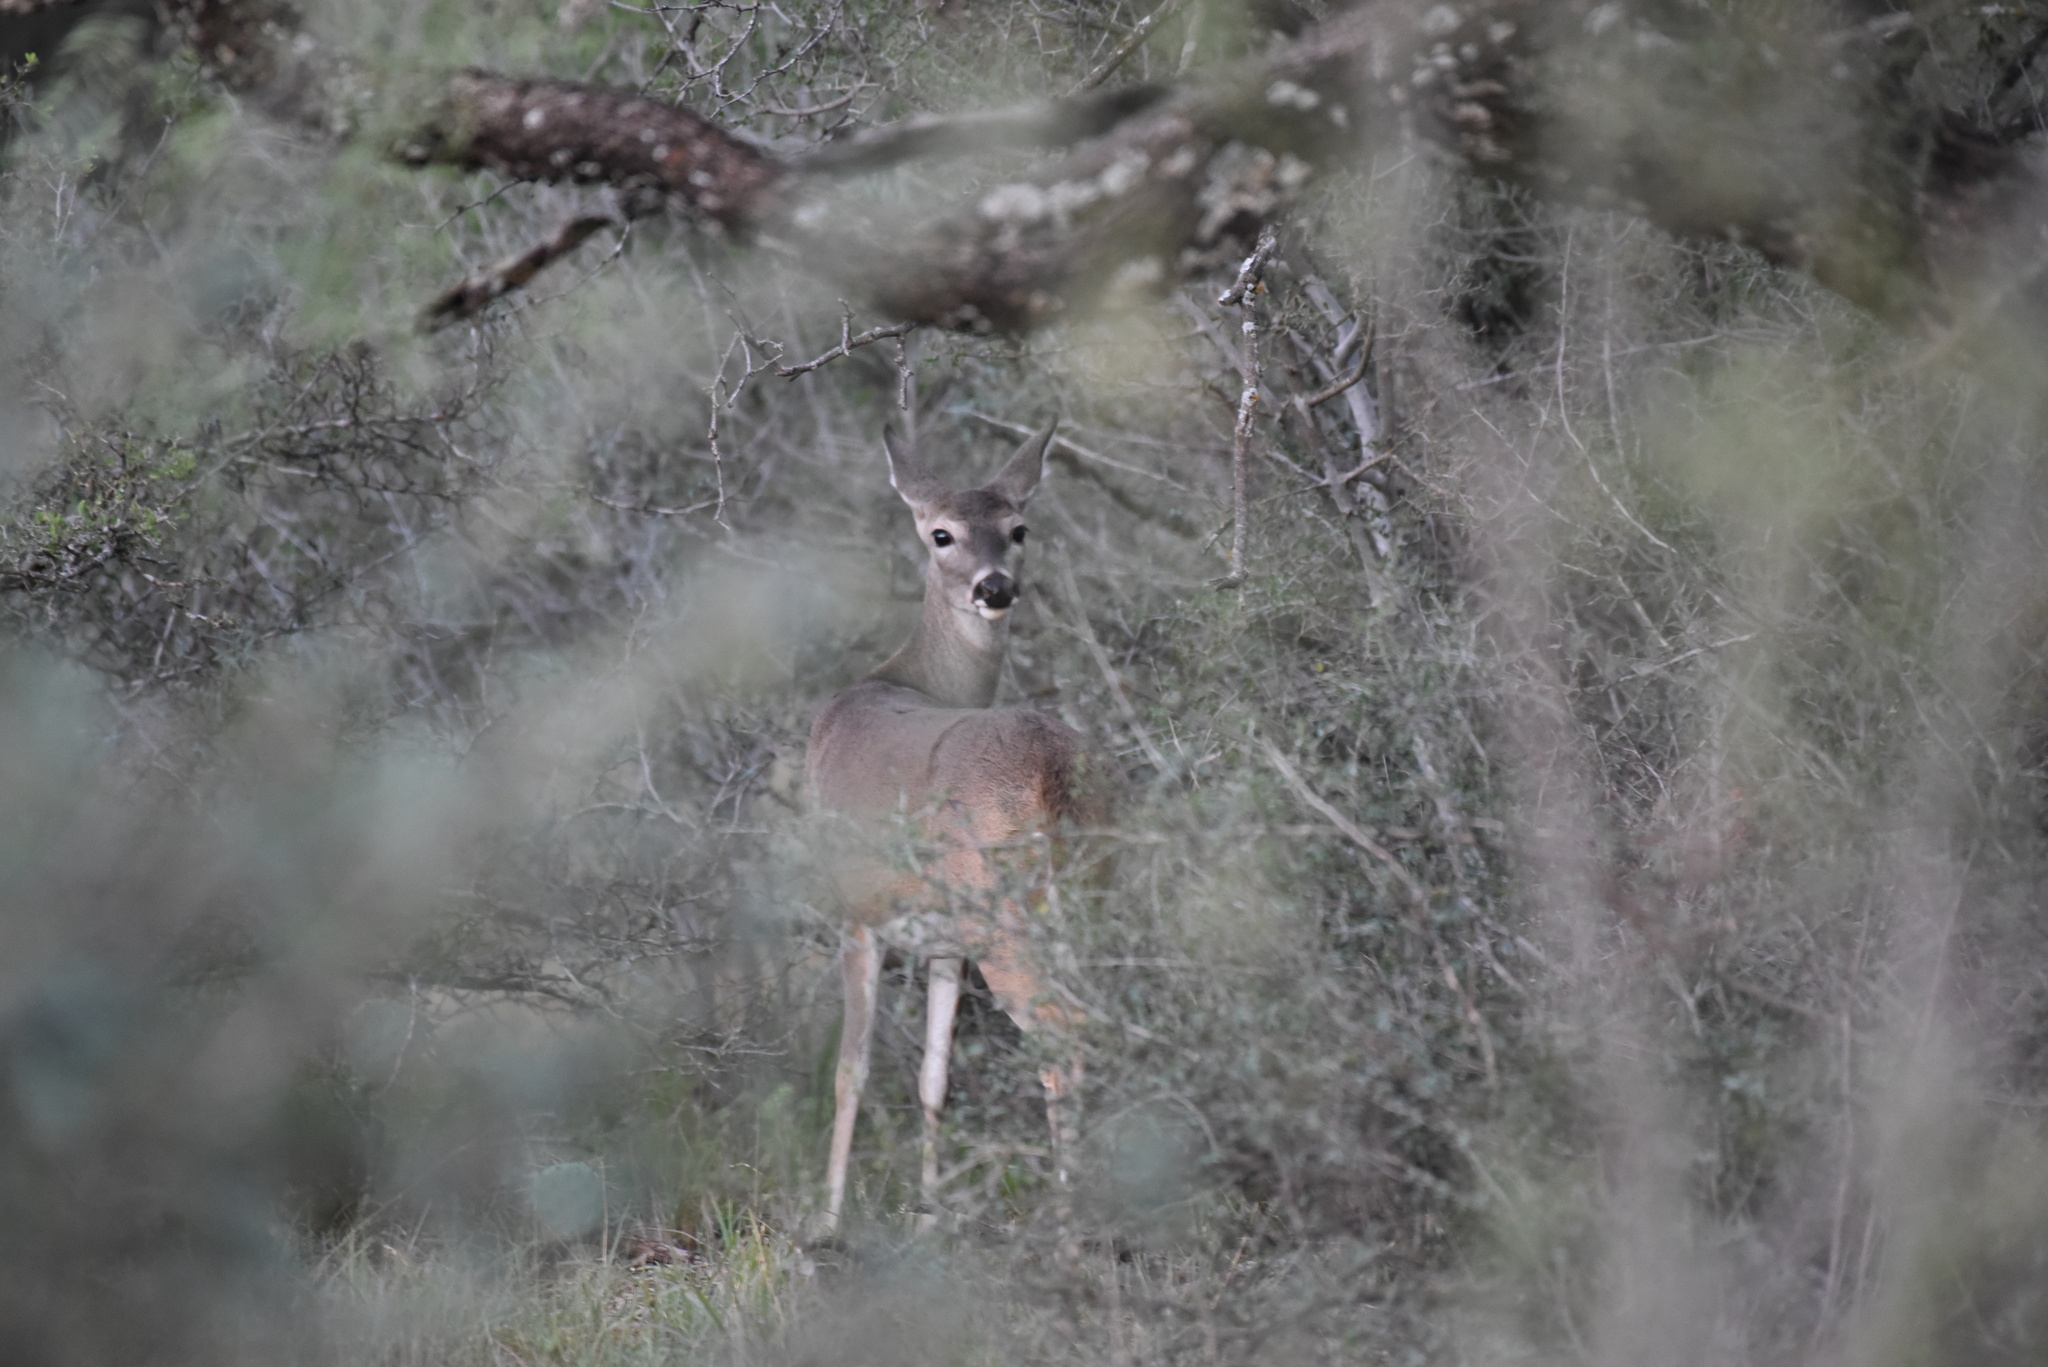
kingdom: Animalia
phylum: Chordata
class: Mammalia
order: Artiodactyla
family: Cervidae
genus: Odocoileus
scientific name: Odocoileus virginianus
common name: White-tailed deer
